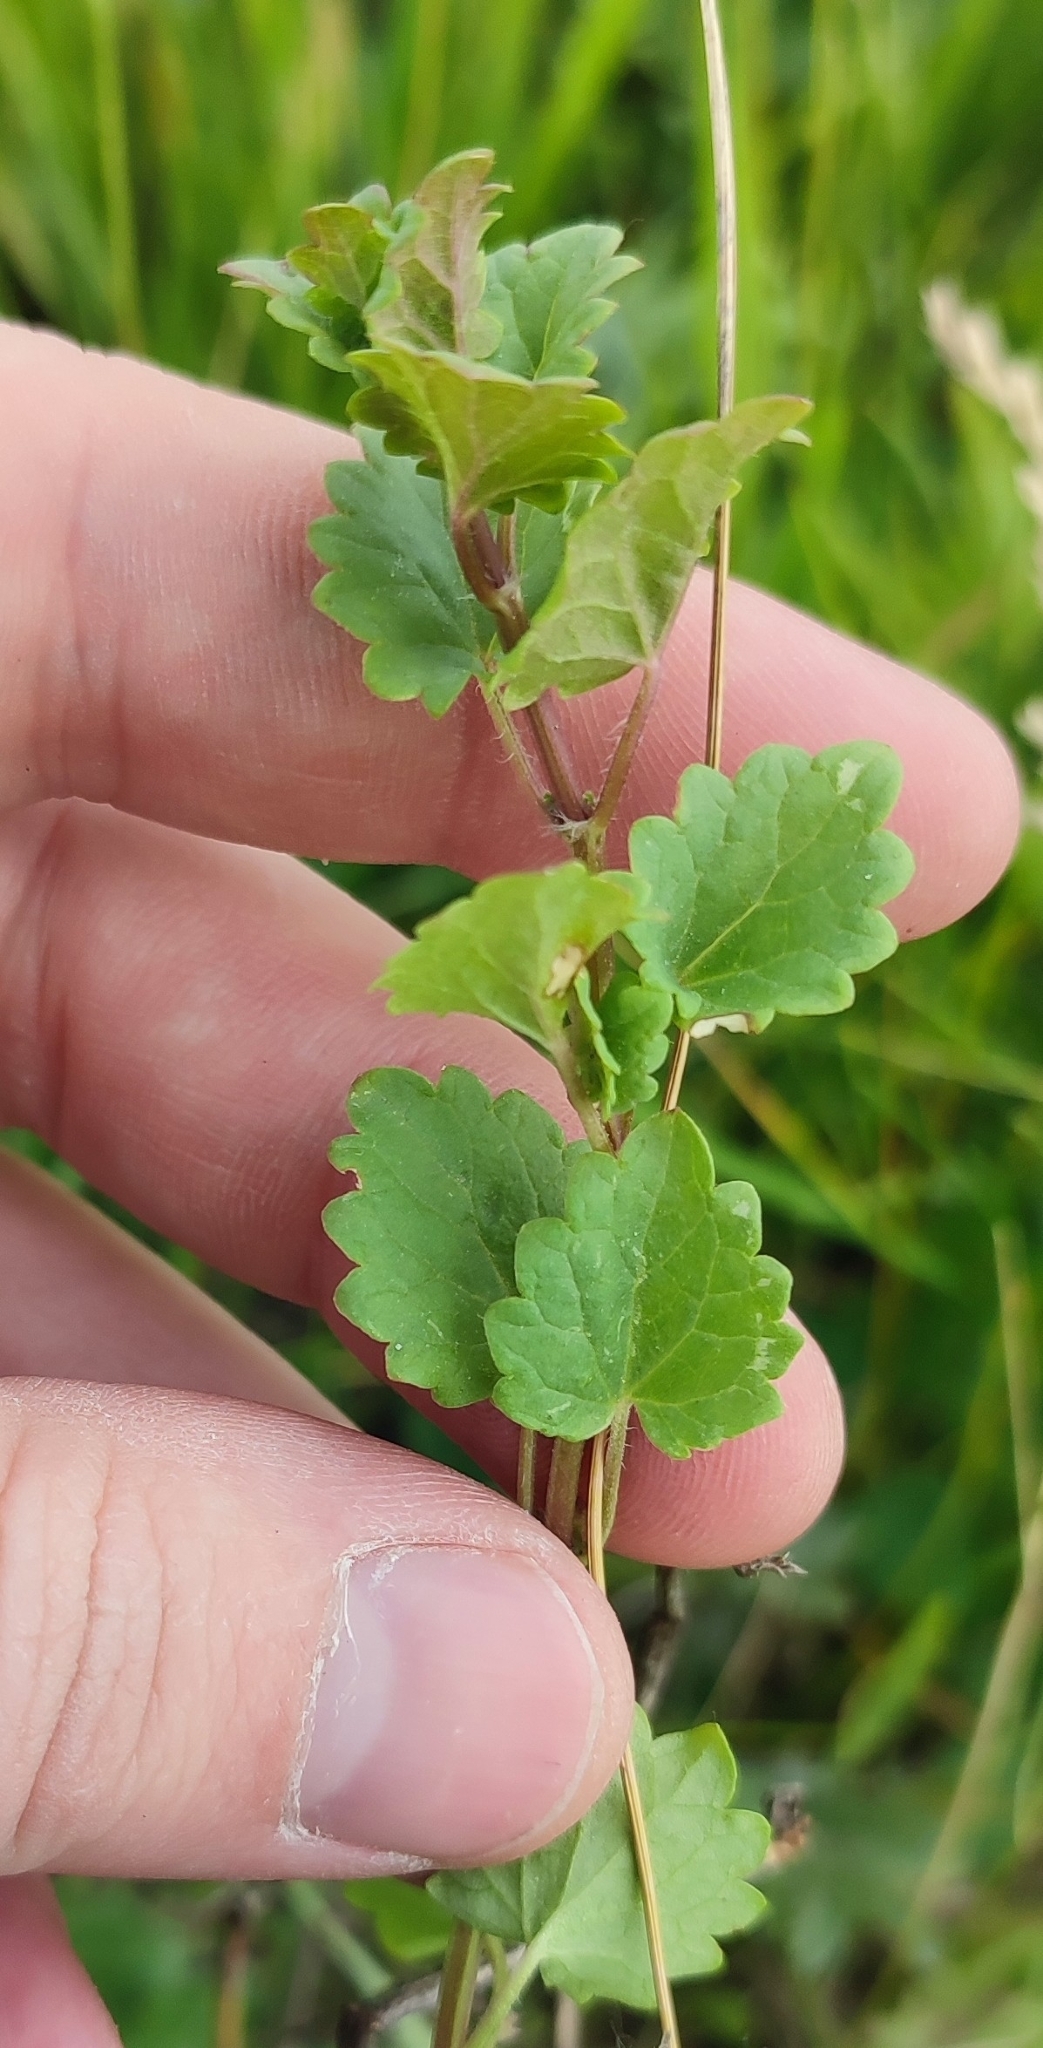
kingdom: Plantae
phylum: Tracheophyta
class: Magnoliopsida
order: Lamiales
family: Lamiaceae
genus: Glechoma
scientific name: Glechoma hederacea
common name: Ground ivy
